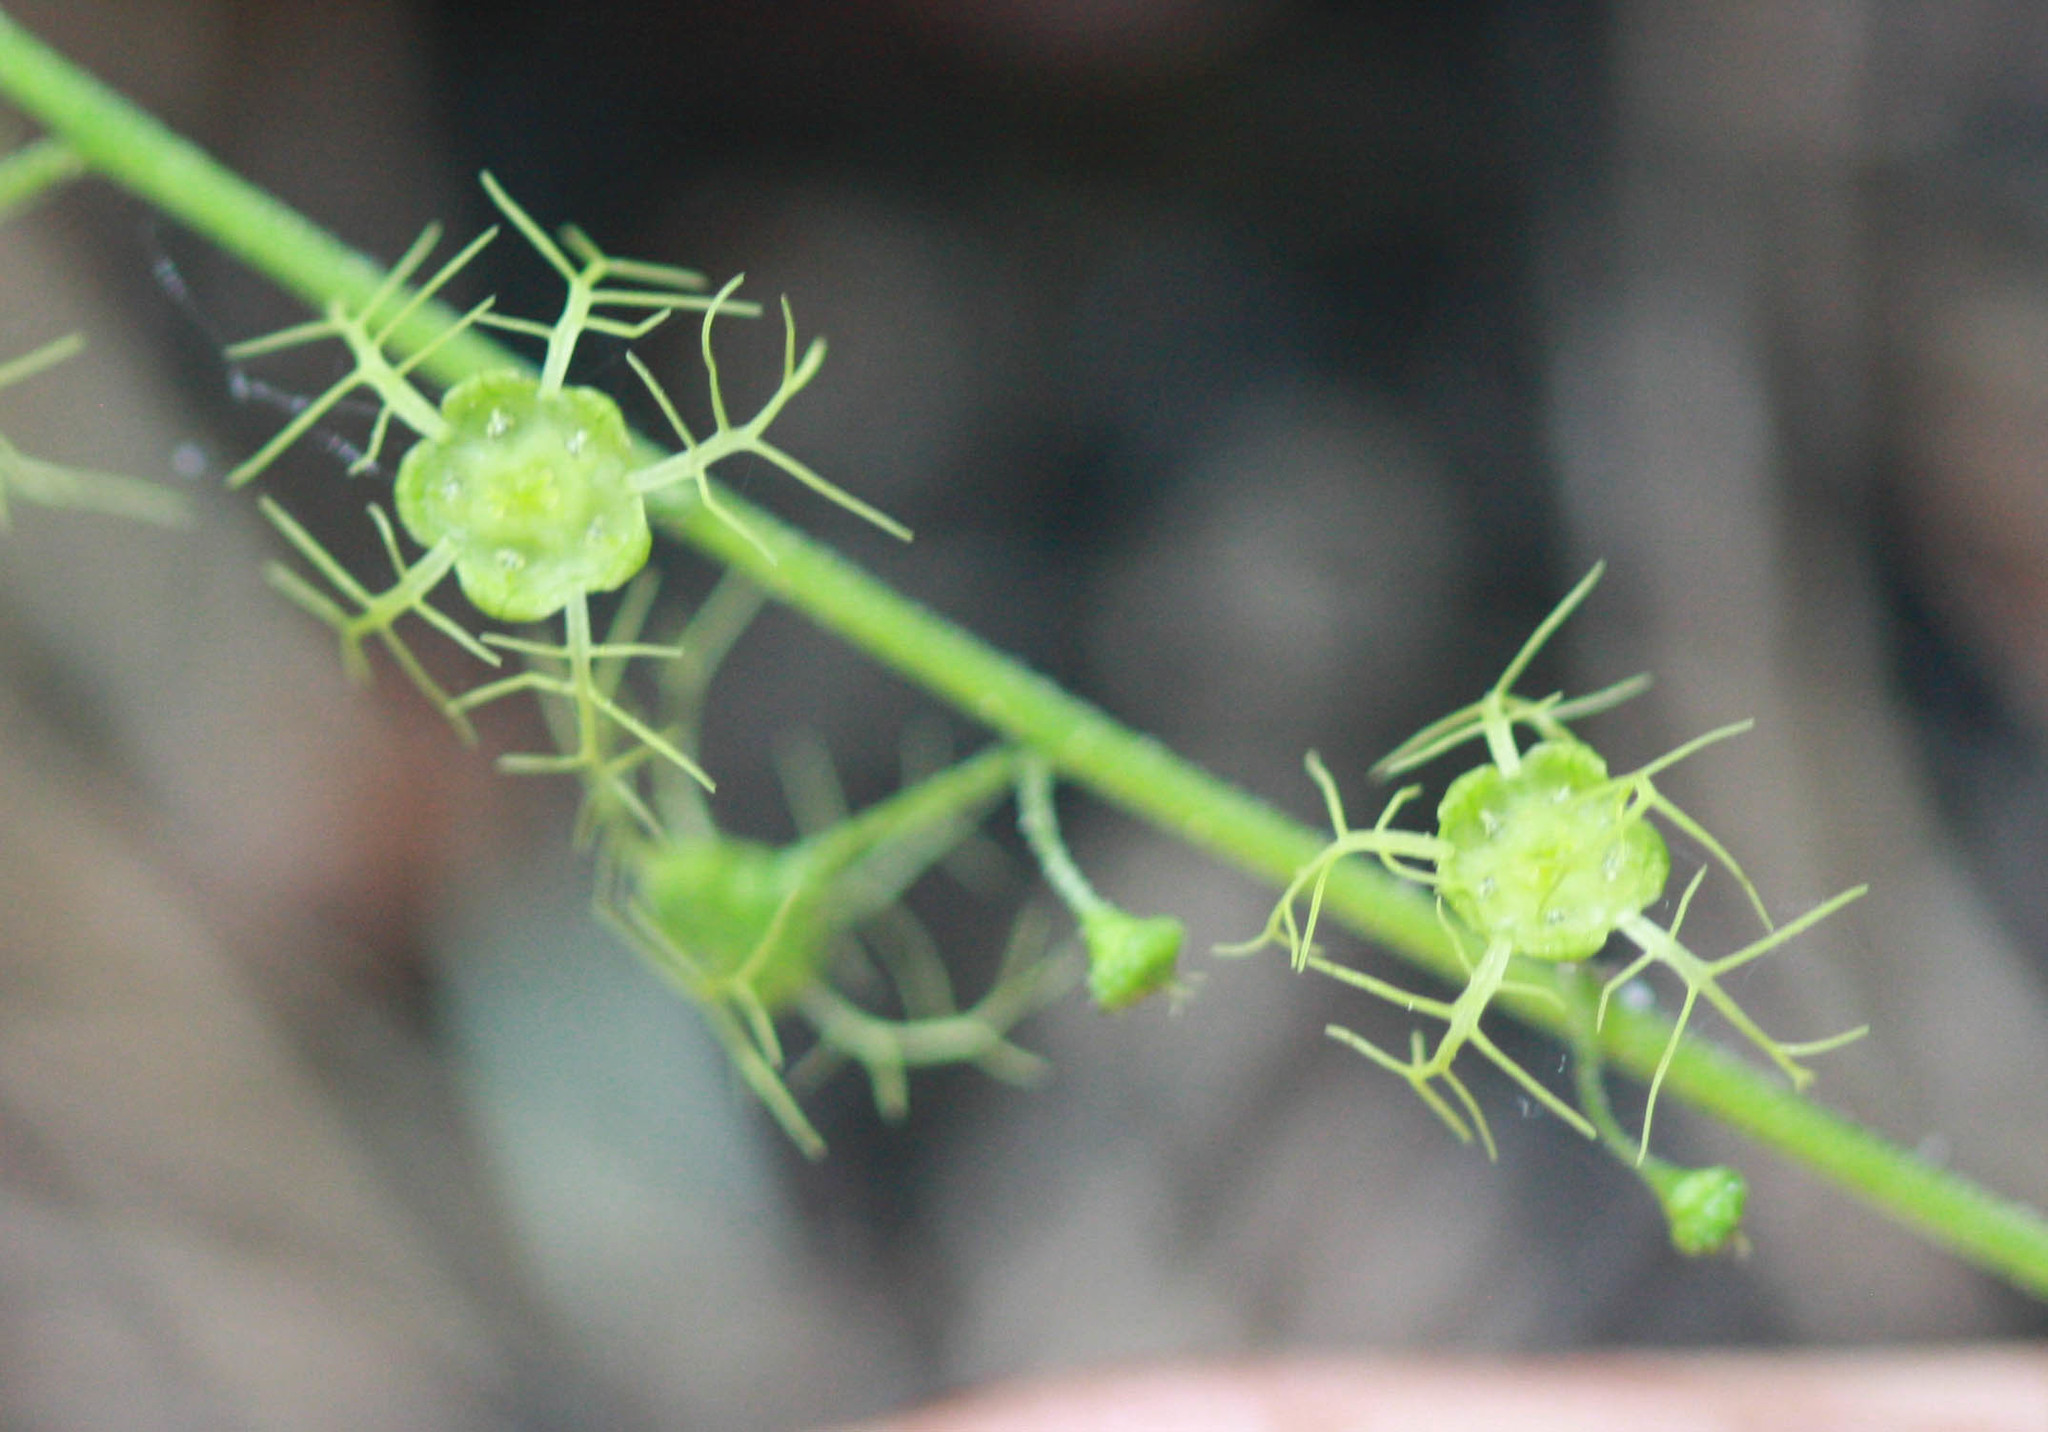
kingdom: Plantae
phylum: Tracheophyta
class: Magnoliopsida
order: Saxifragales
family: Saxifragaceae
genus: Brewerimitella
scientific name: Brewerimitella breweri
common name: Brewer's bishop's-cap
